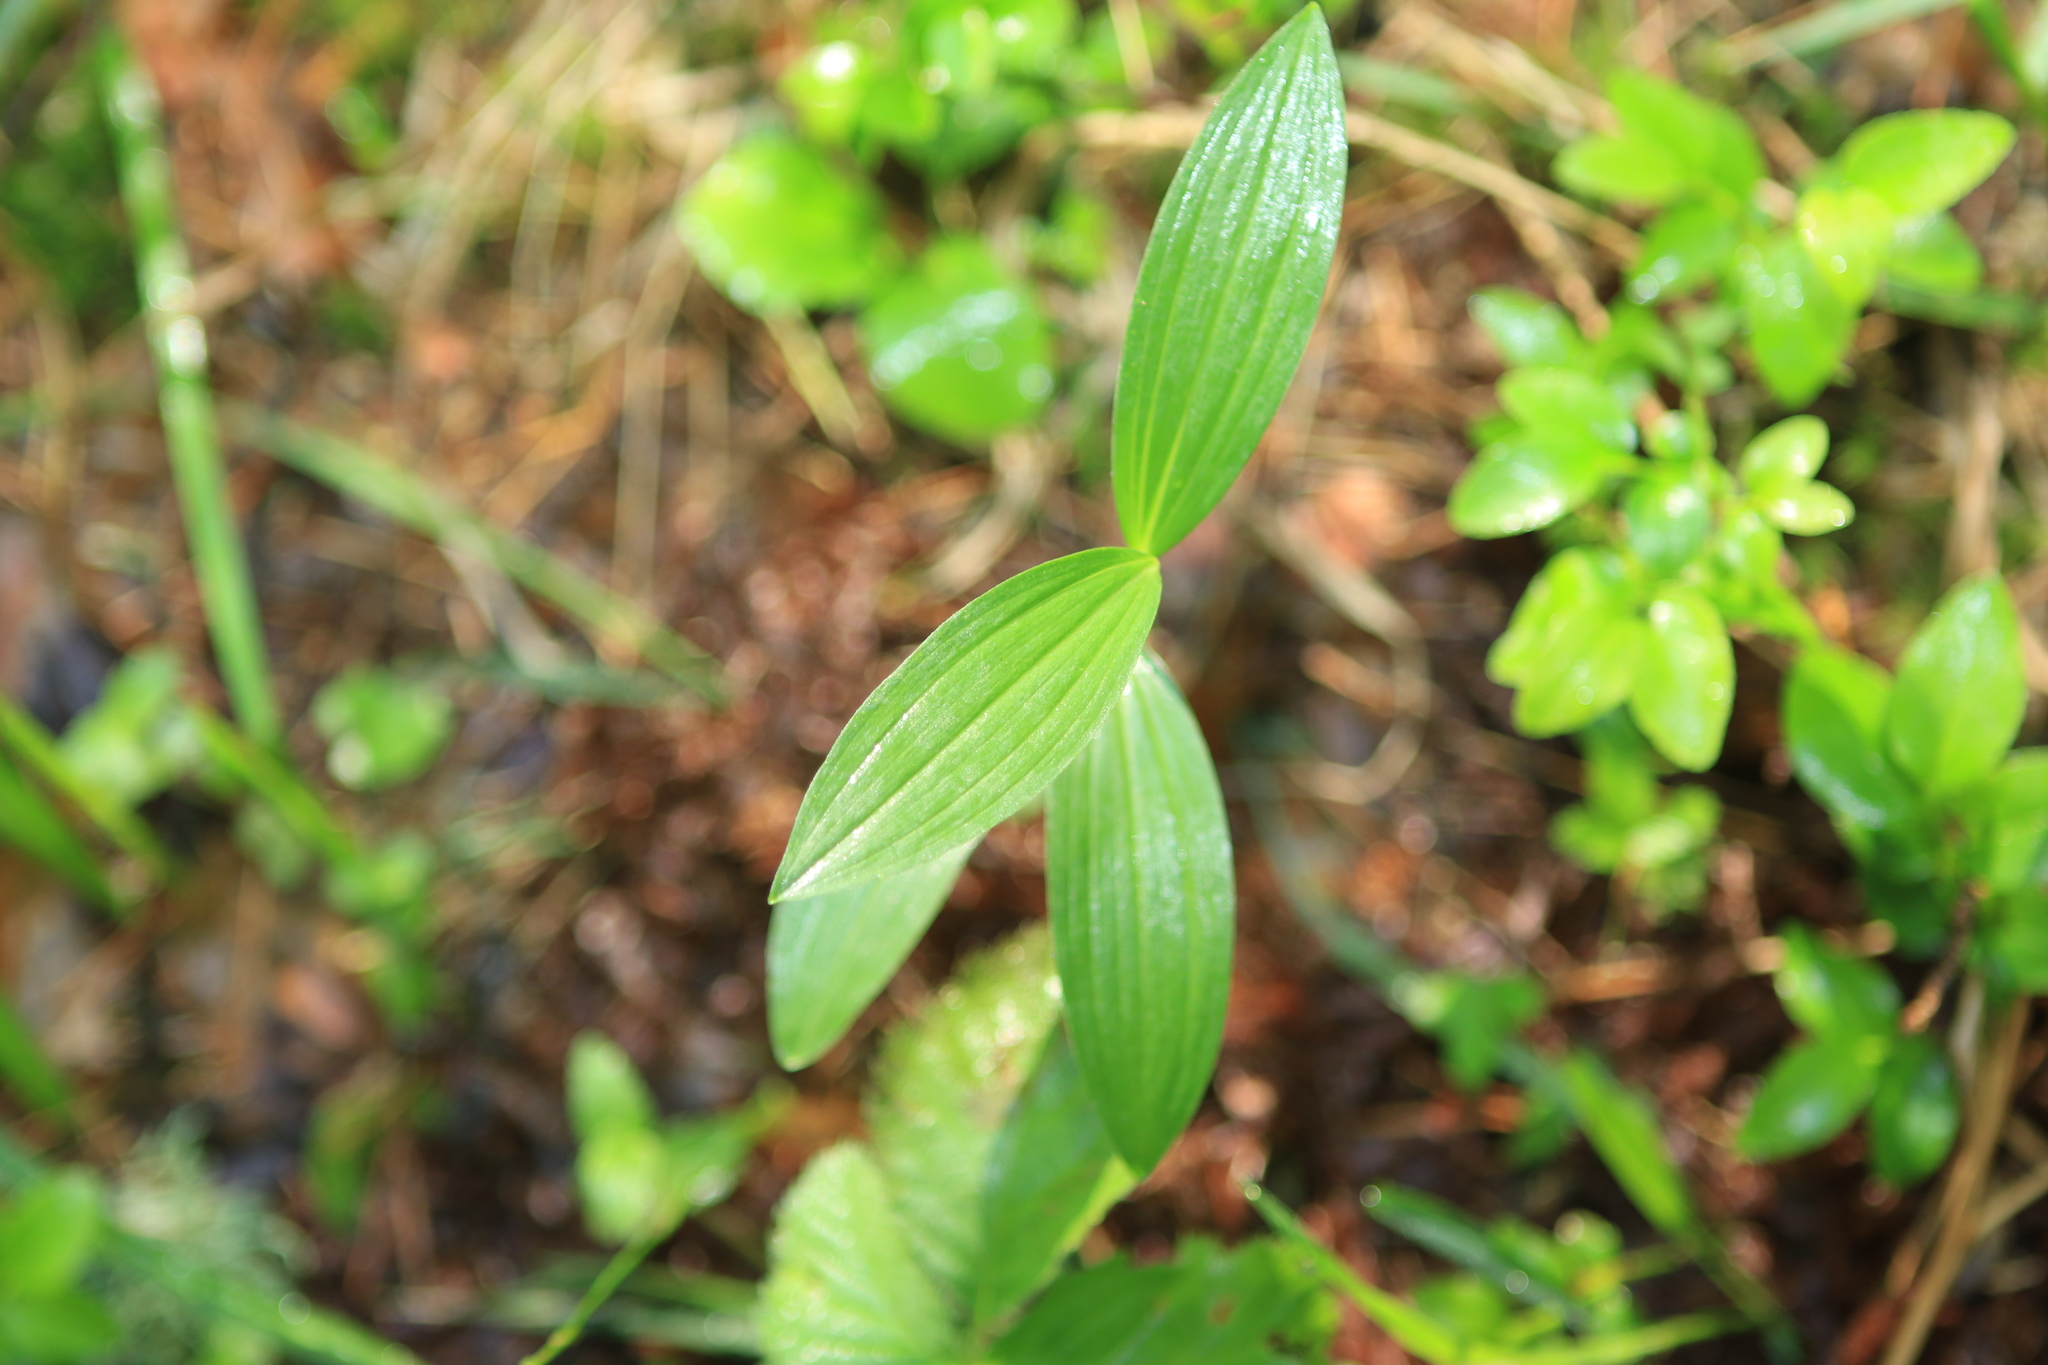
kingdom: Plantae
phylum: Tracheophyta
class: Liliopsida
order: Asparagales
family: Asparagaceae
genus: Polygonatum
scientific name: Polygonatum humile
